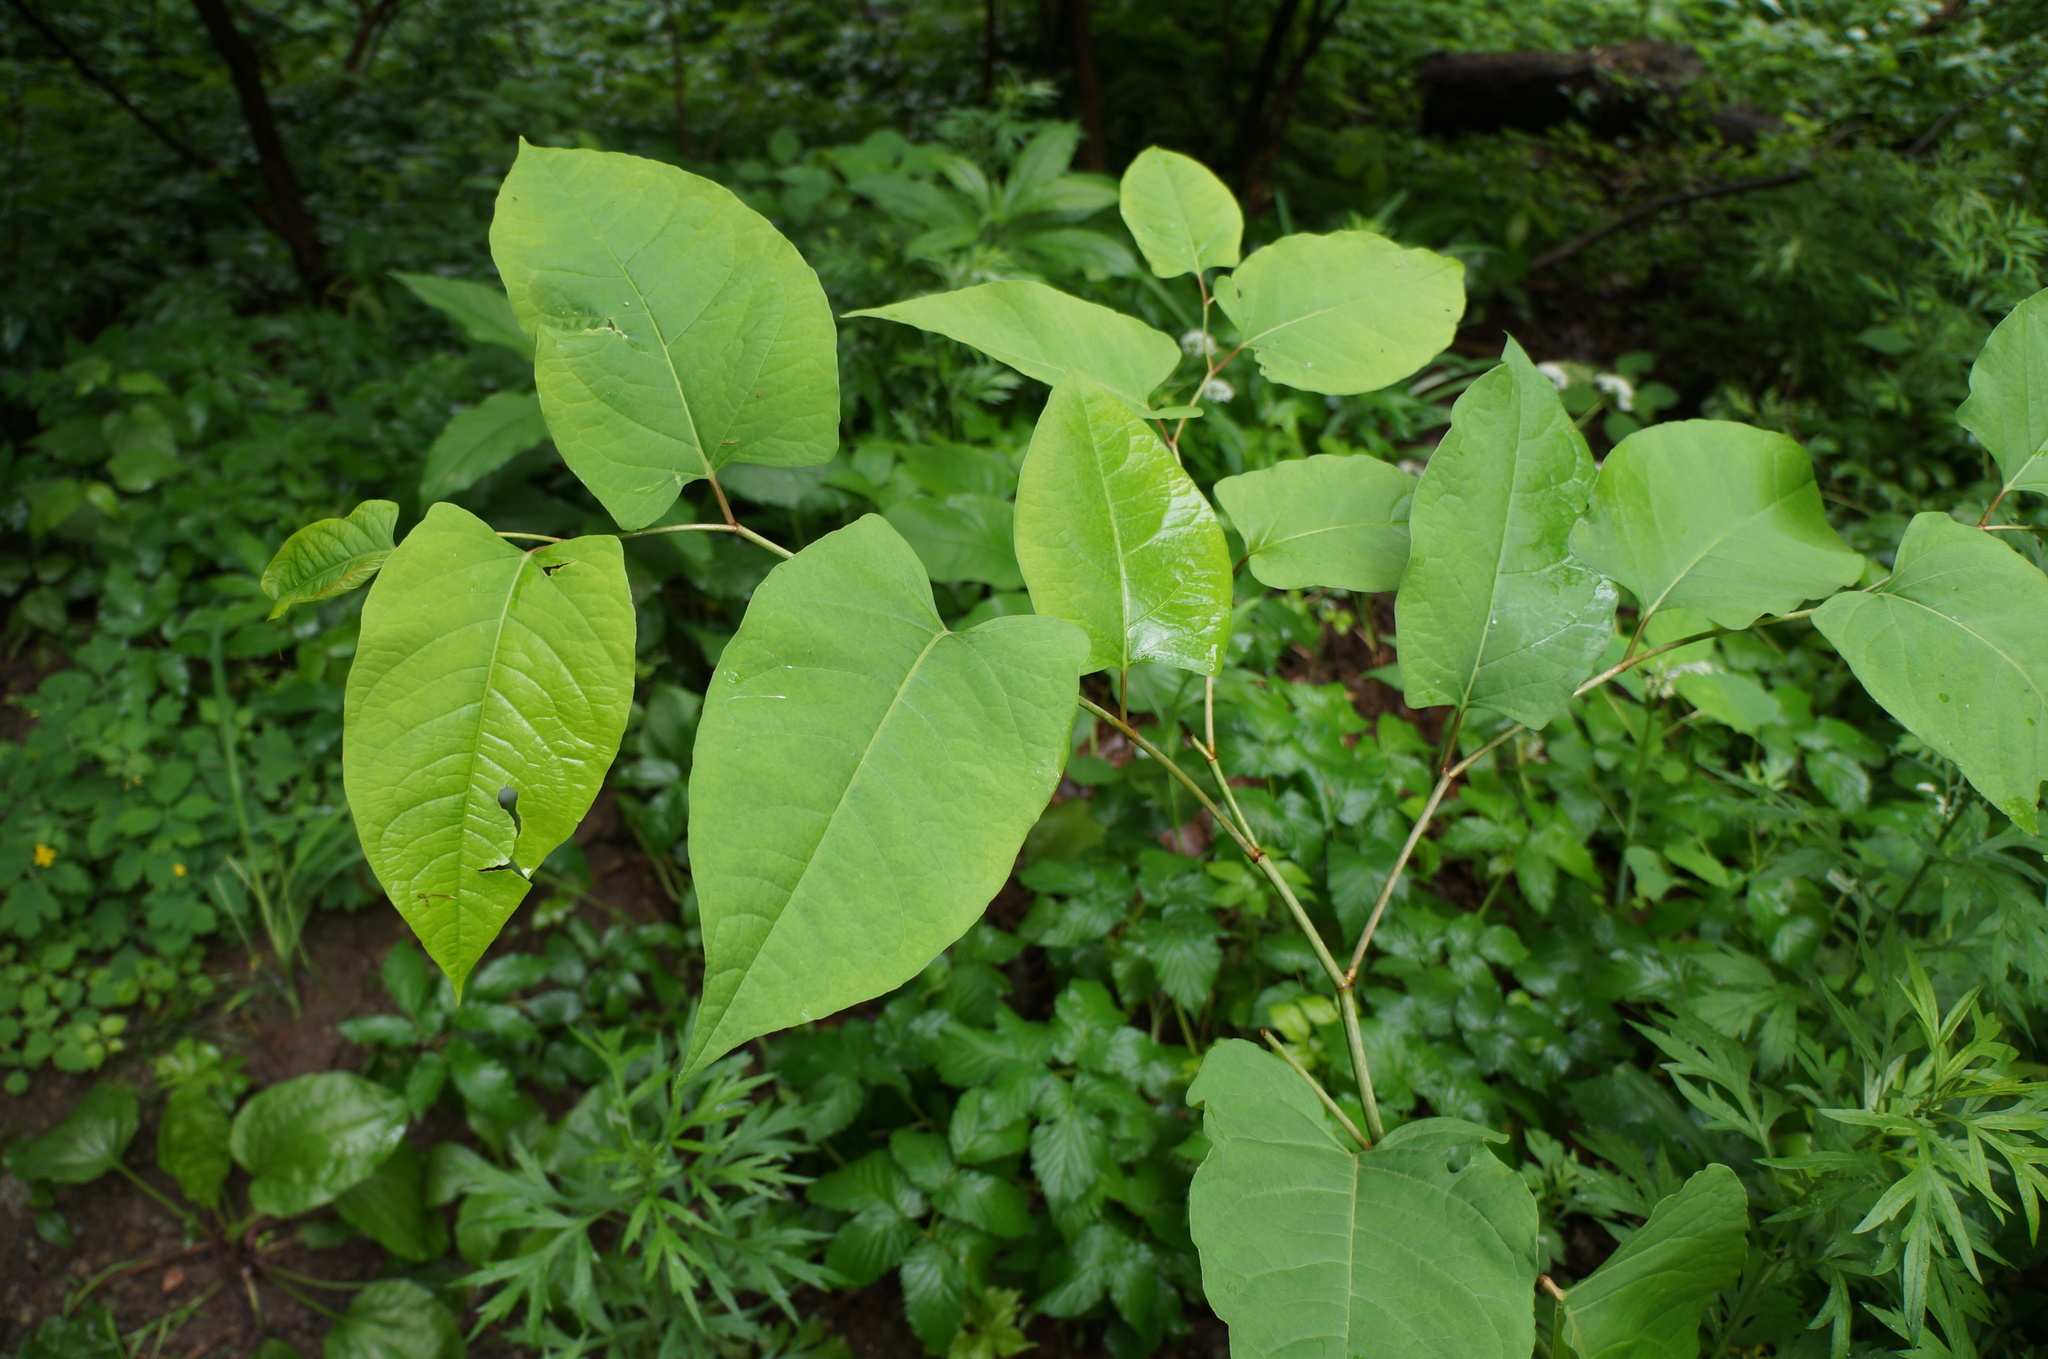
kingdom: Plantae
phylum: Tracheophyta
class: Magnoliopsida
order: Caryophyllales
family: Polygonaceae
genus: Reynoutria
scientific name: Reynoutria japonica
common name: Japanese knotweed
